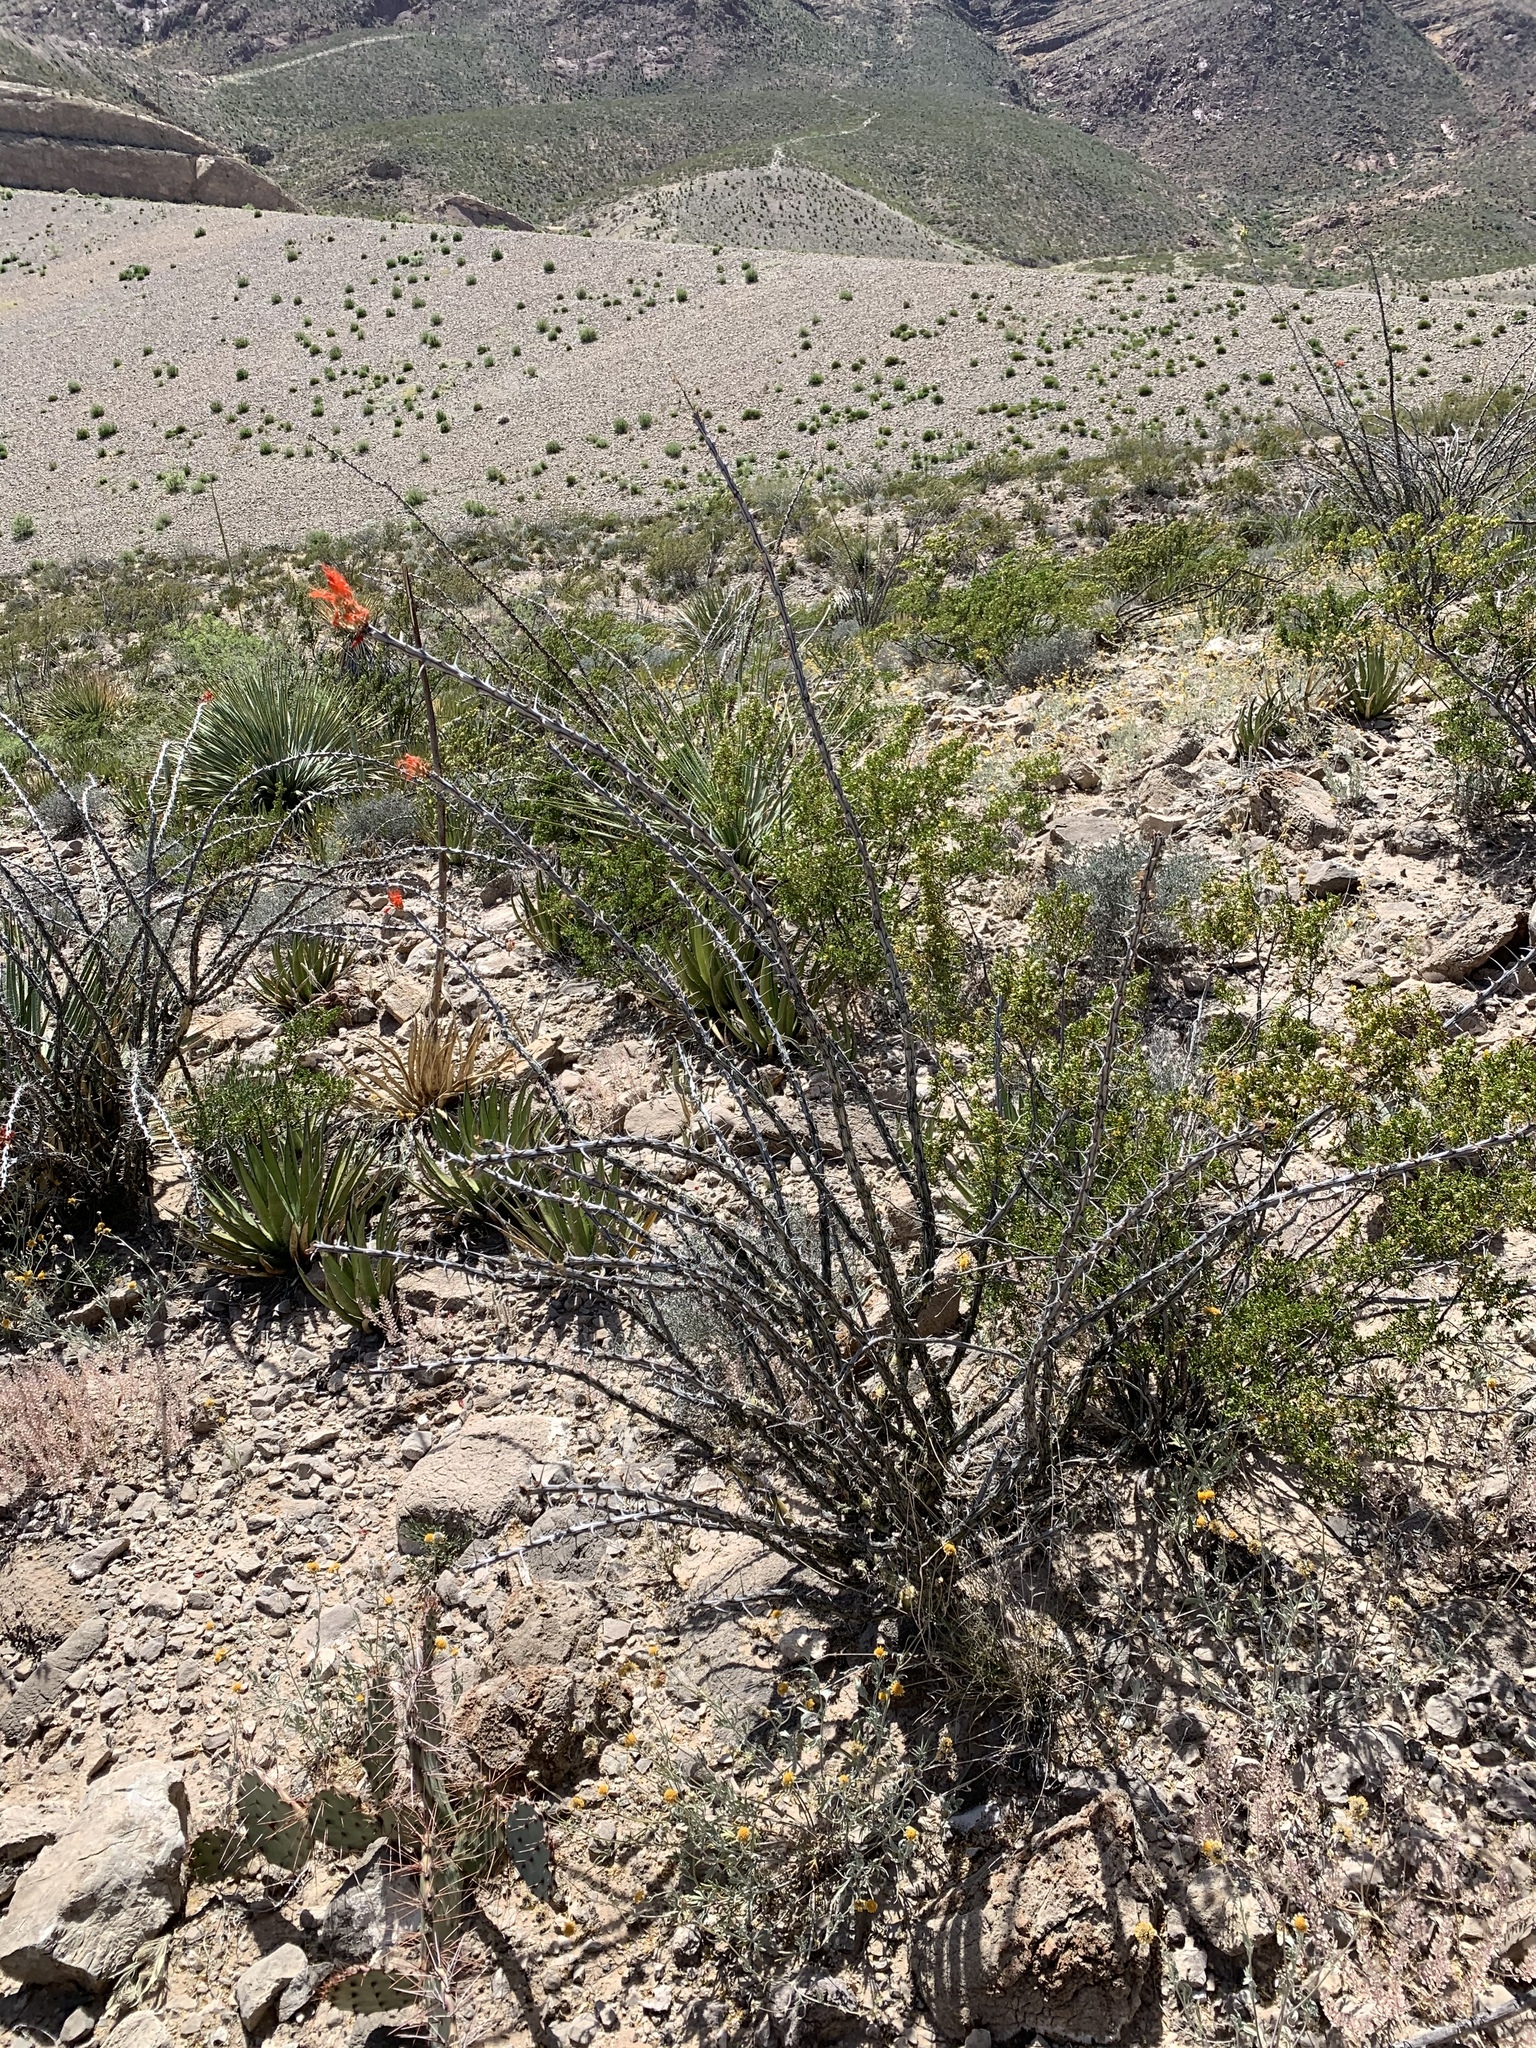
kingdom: Plantae
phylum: Tracheophyta
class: Magnoliopsida
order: Ericales
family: Fouquieriaceae
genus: Fouquieria
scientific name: Fouquieria splendens
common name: Vine-cactus
